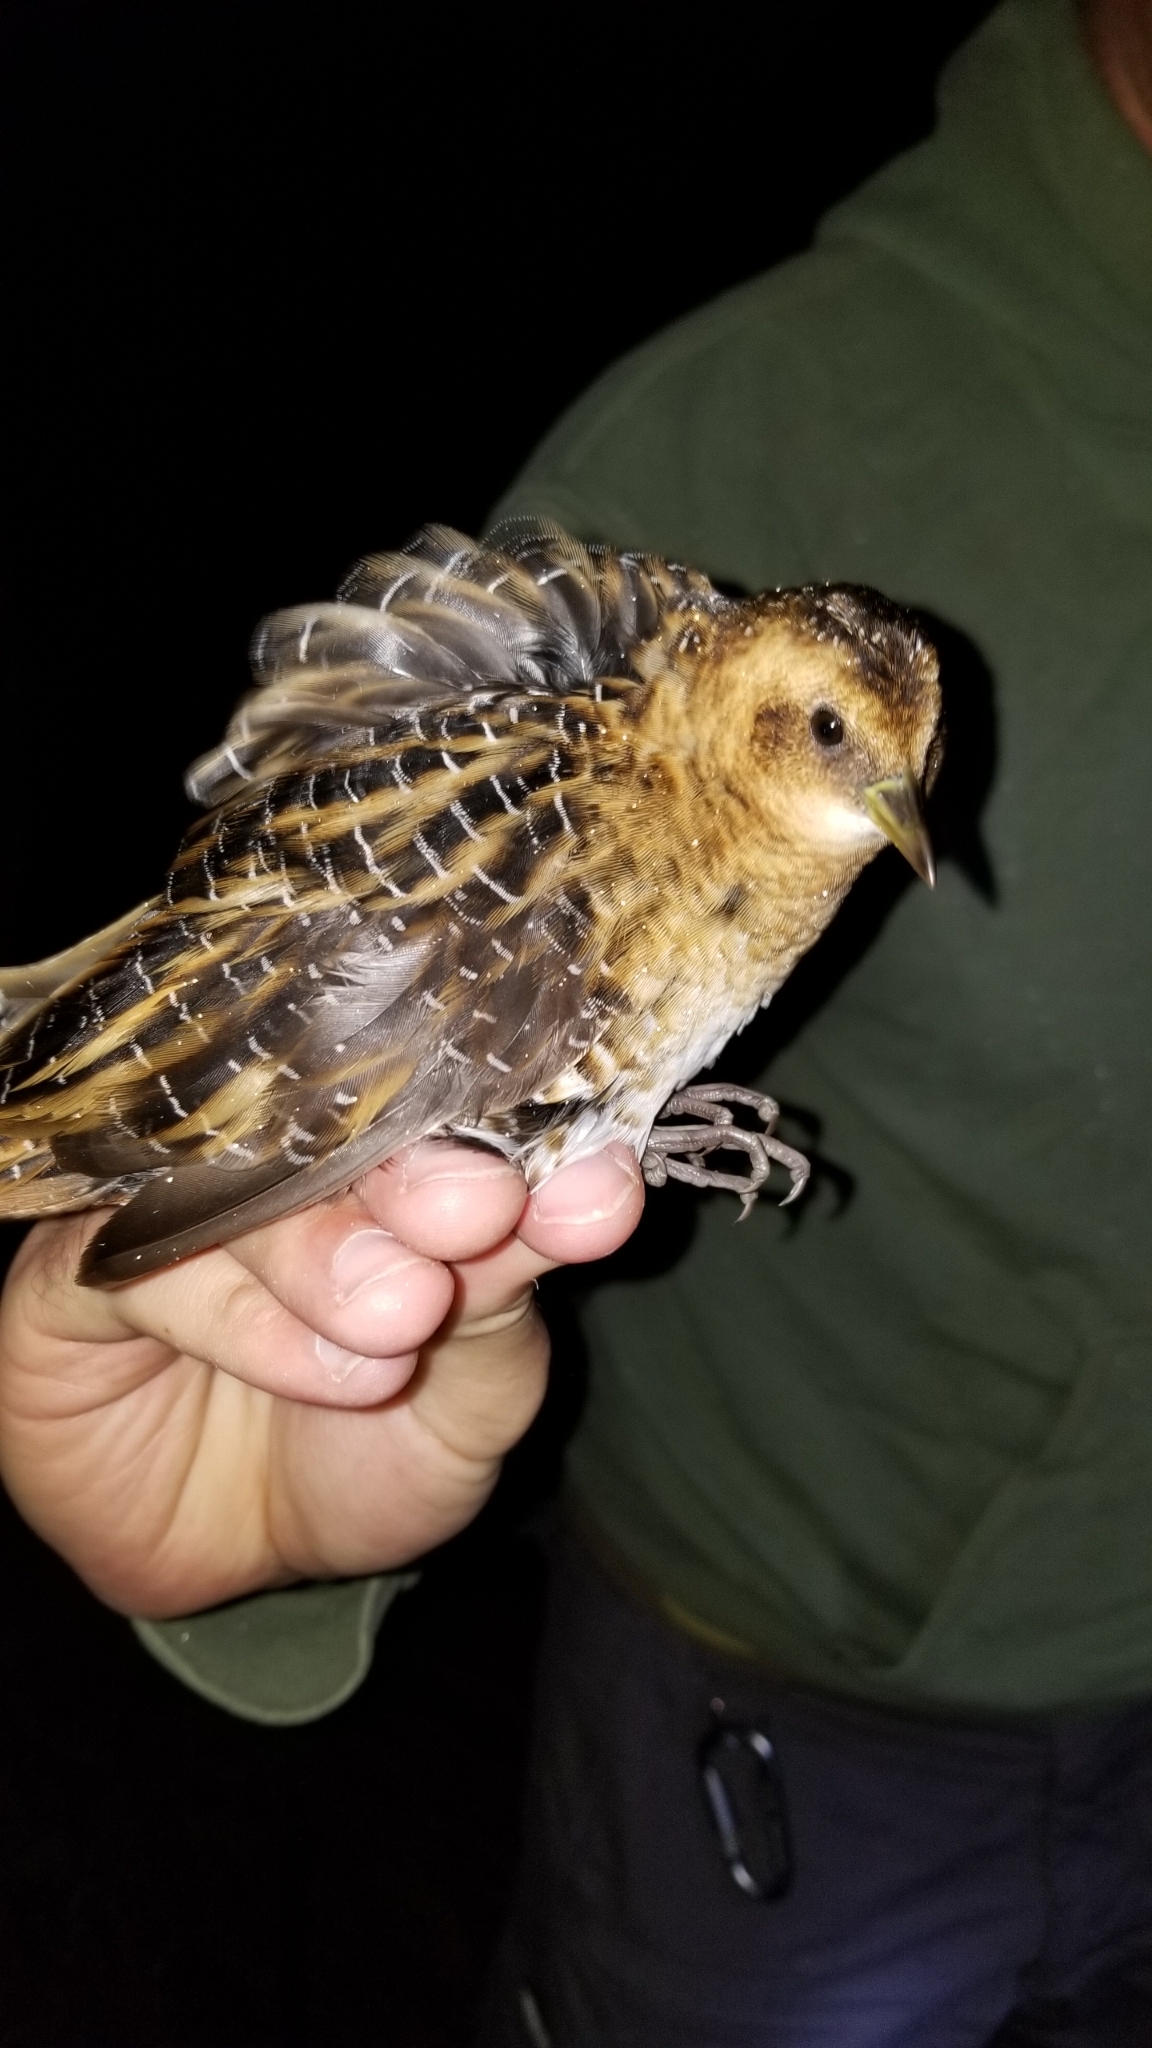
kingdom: Animalia
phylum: Chordata
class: Aves
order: Gruiformes
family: Rallidae
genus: Coturnicops
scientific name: Coturnicops noveboracensis
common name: Yellow rail
